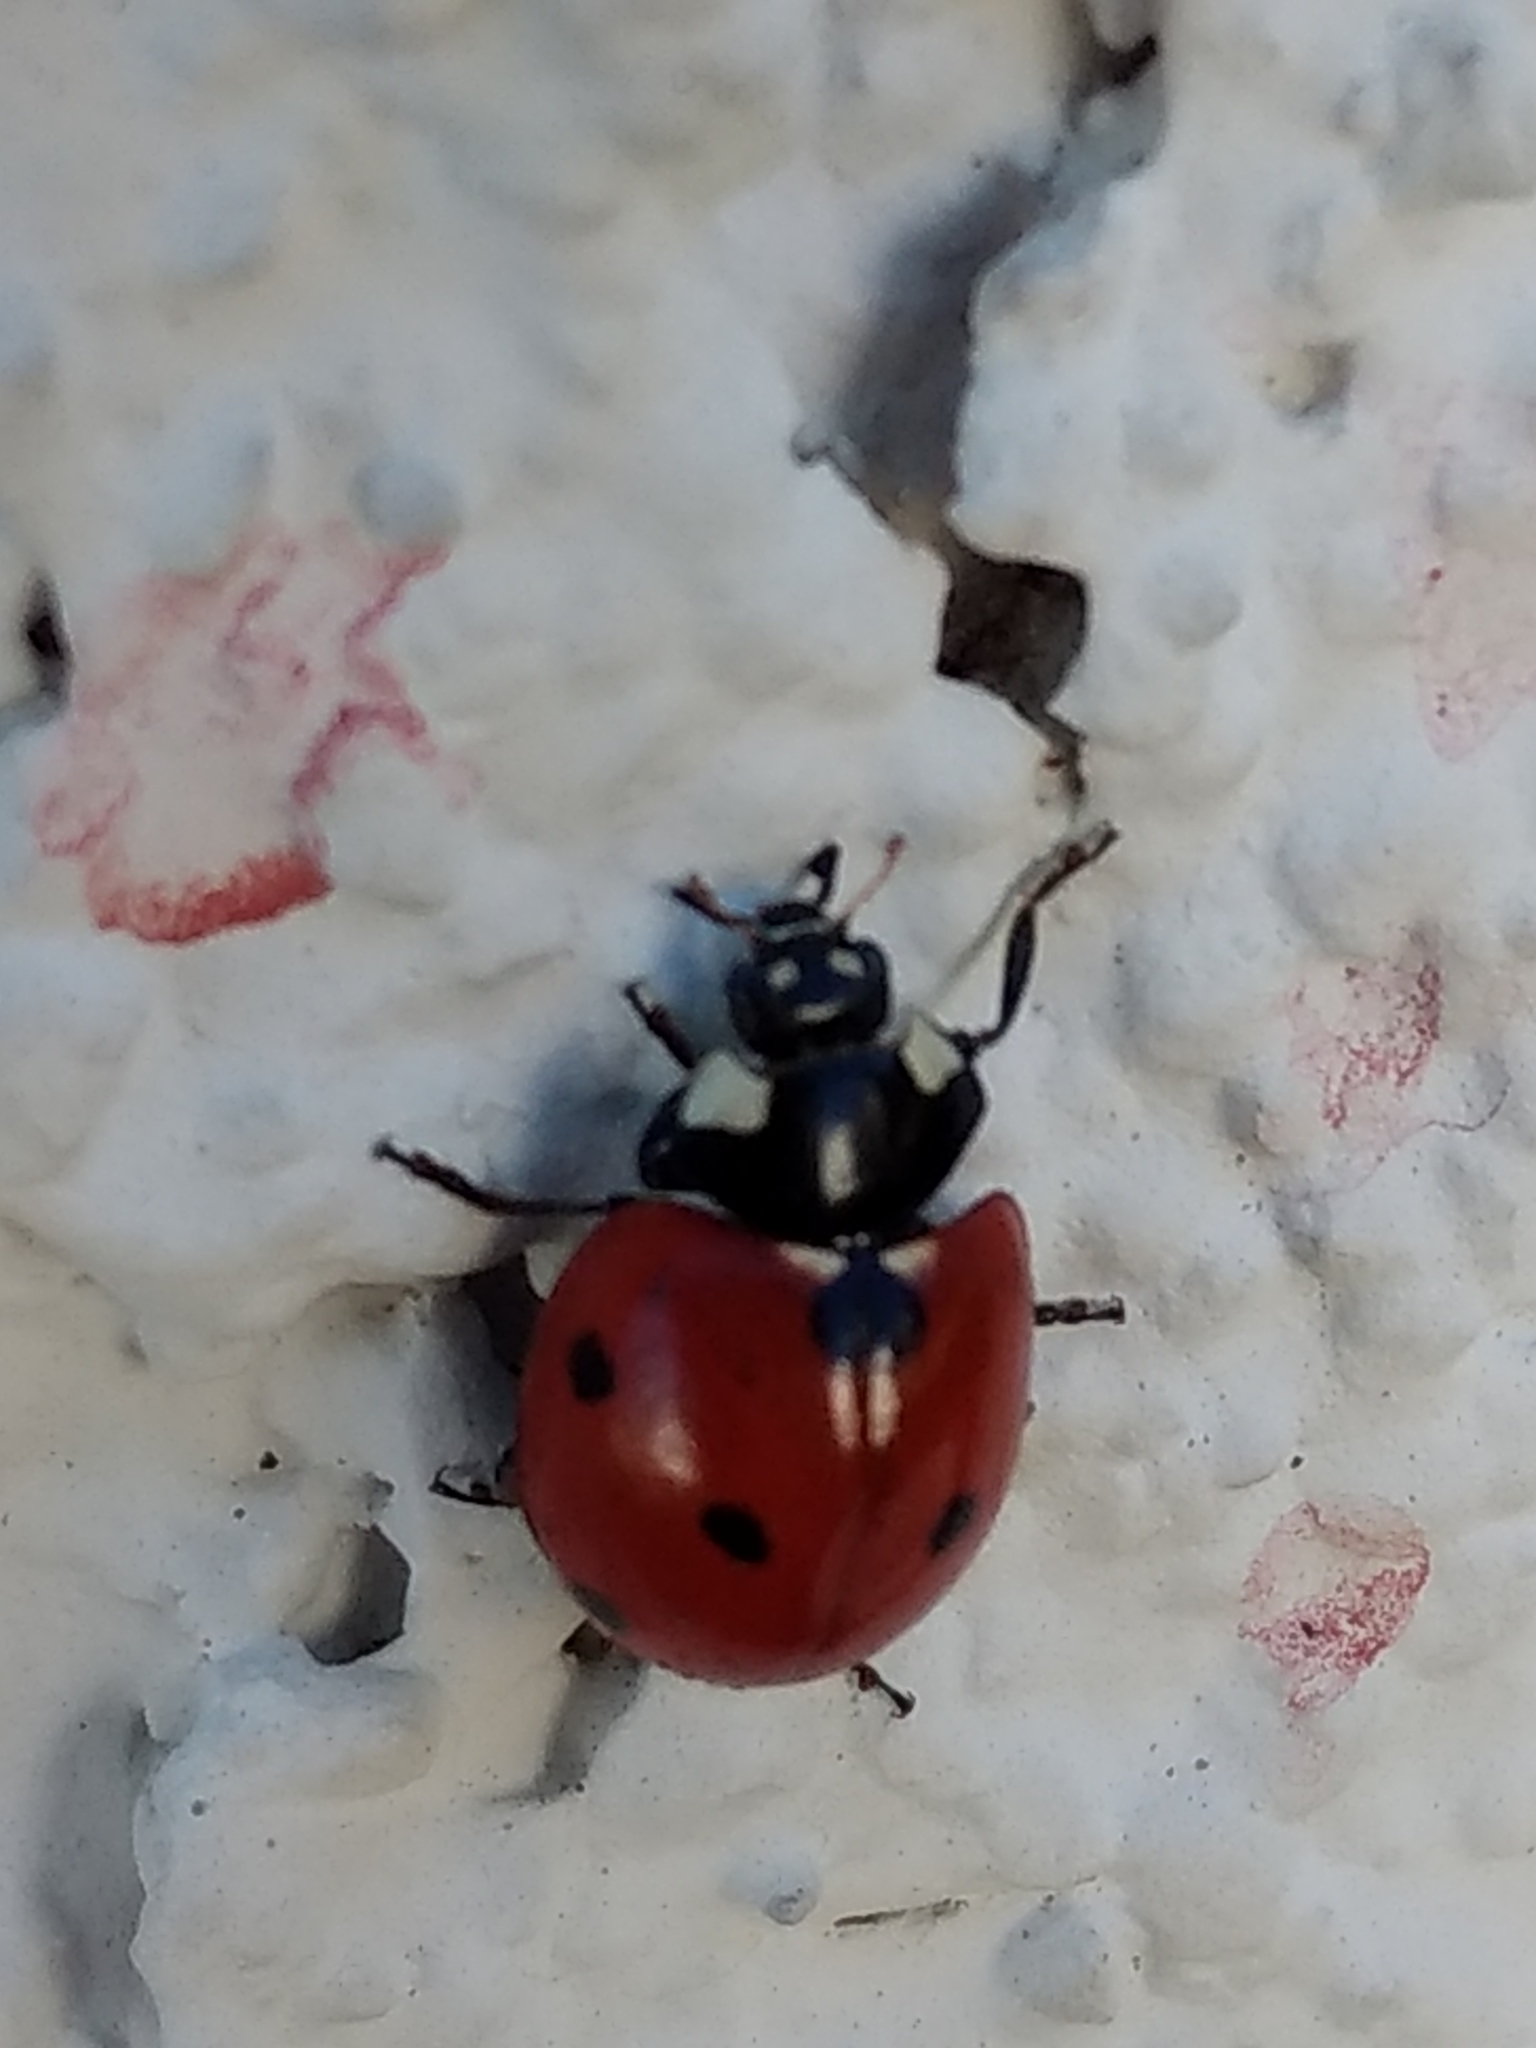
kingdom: Animalia
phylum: Arthropoda
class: Insecta
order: Coleoptera
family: Coccinellidae
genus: Coccinella
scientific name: Coccinella septempunctata
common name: Sevenspotted lady beetle
